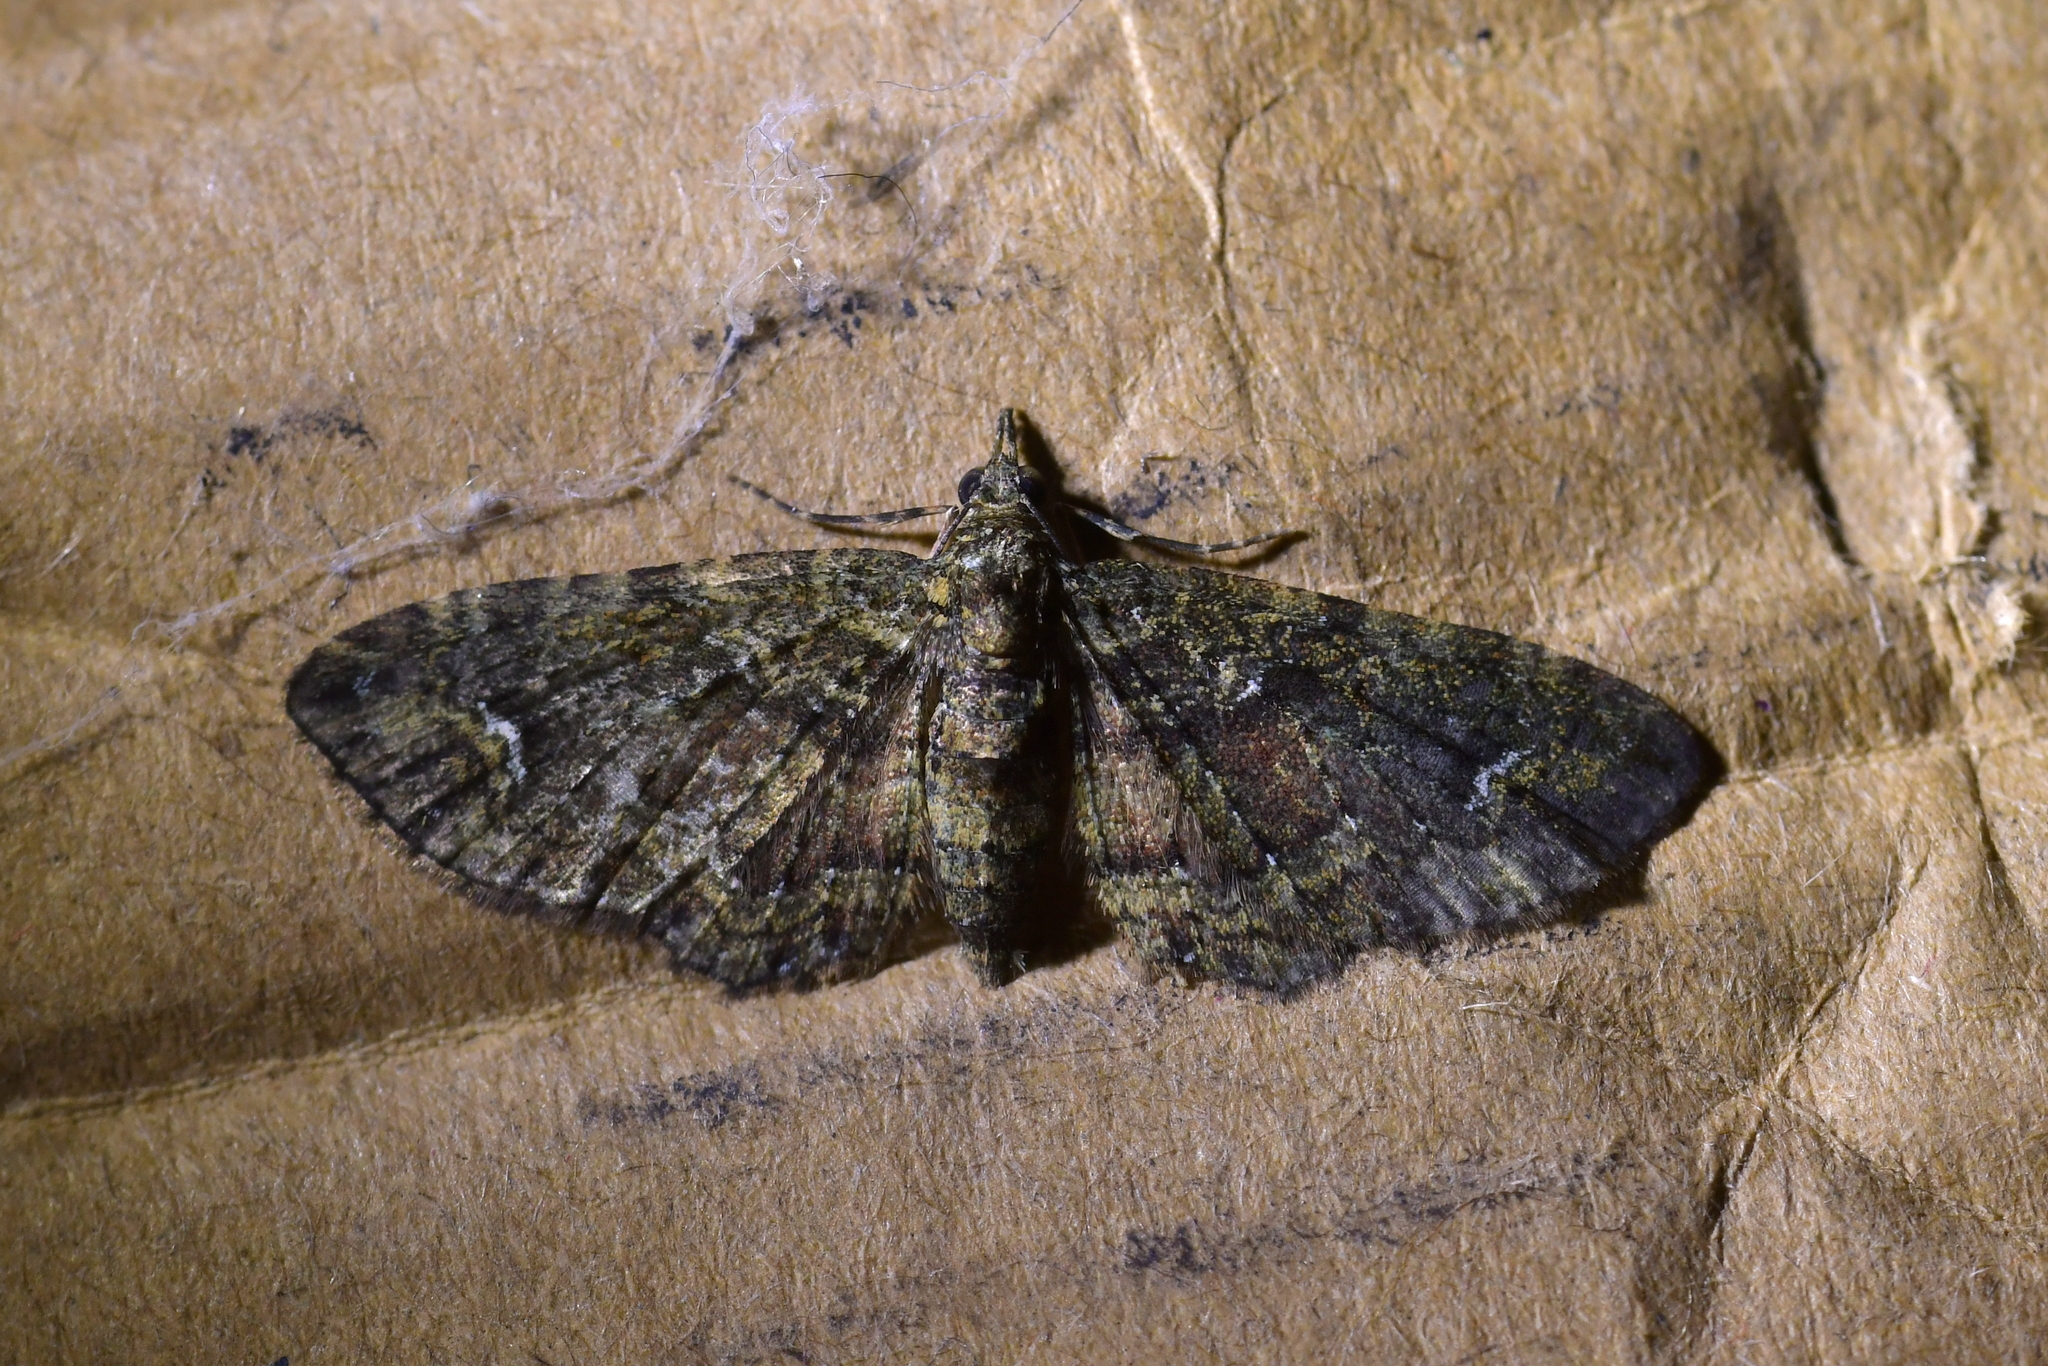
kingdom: Animalia
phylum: Arthropoda
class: Insecta
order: Lepidoptera
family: Geometridae
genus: Pasiphilodes
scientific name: Pasiphilodes testulata
